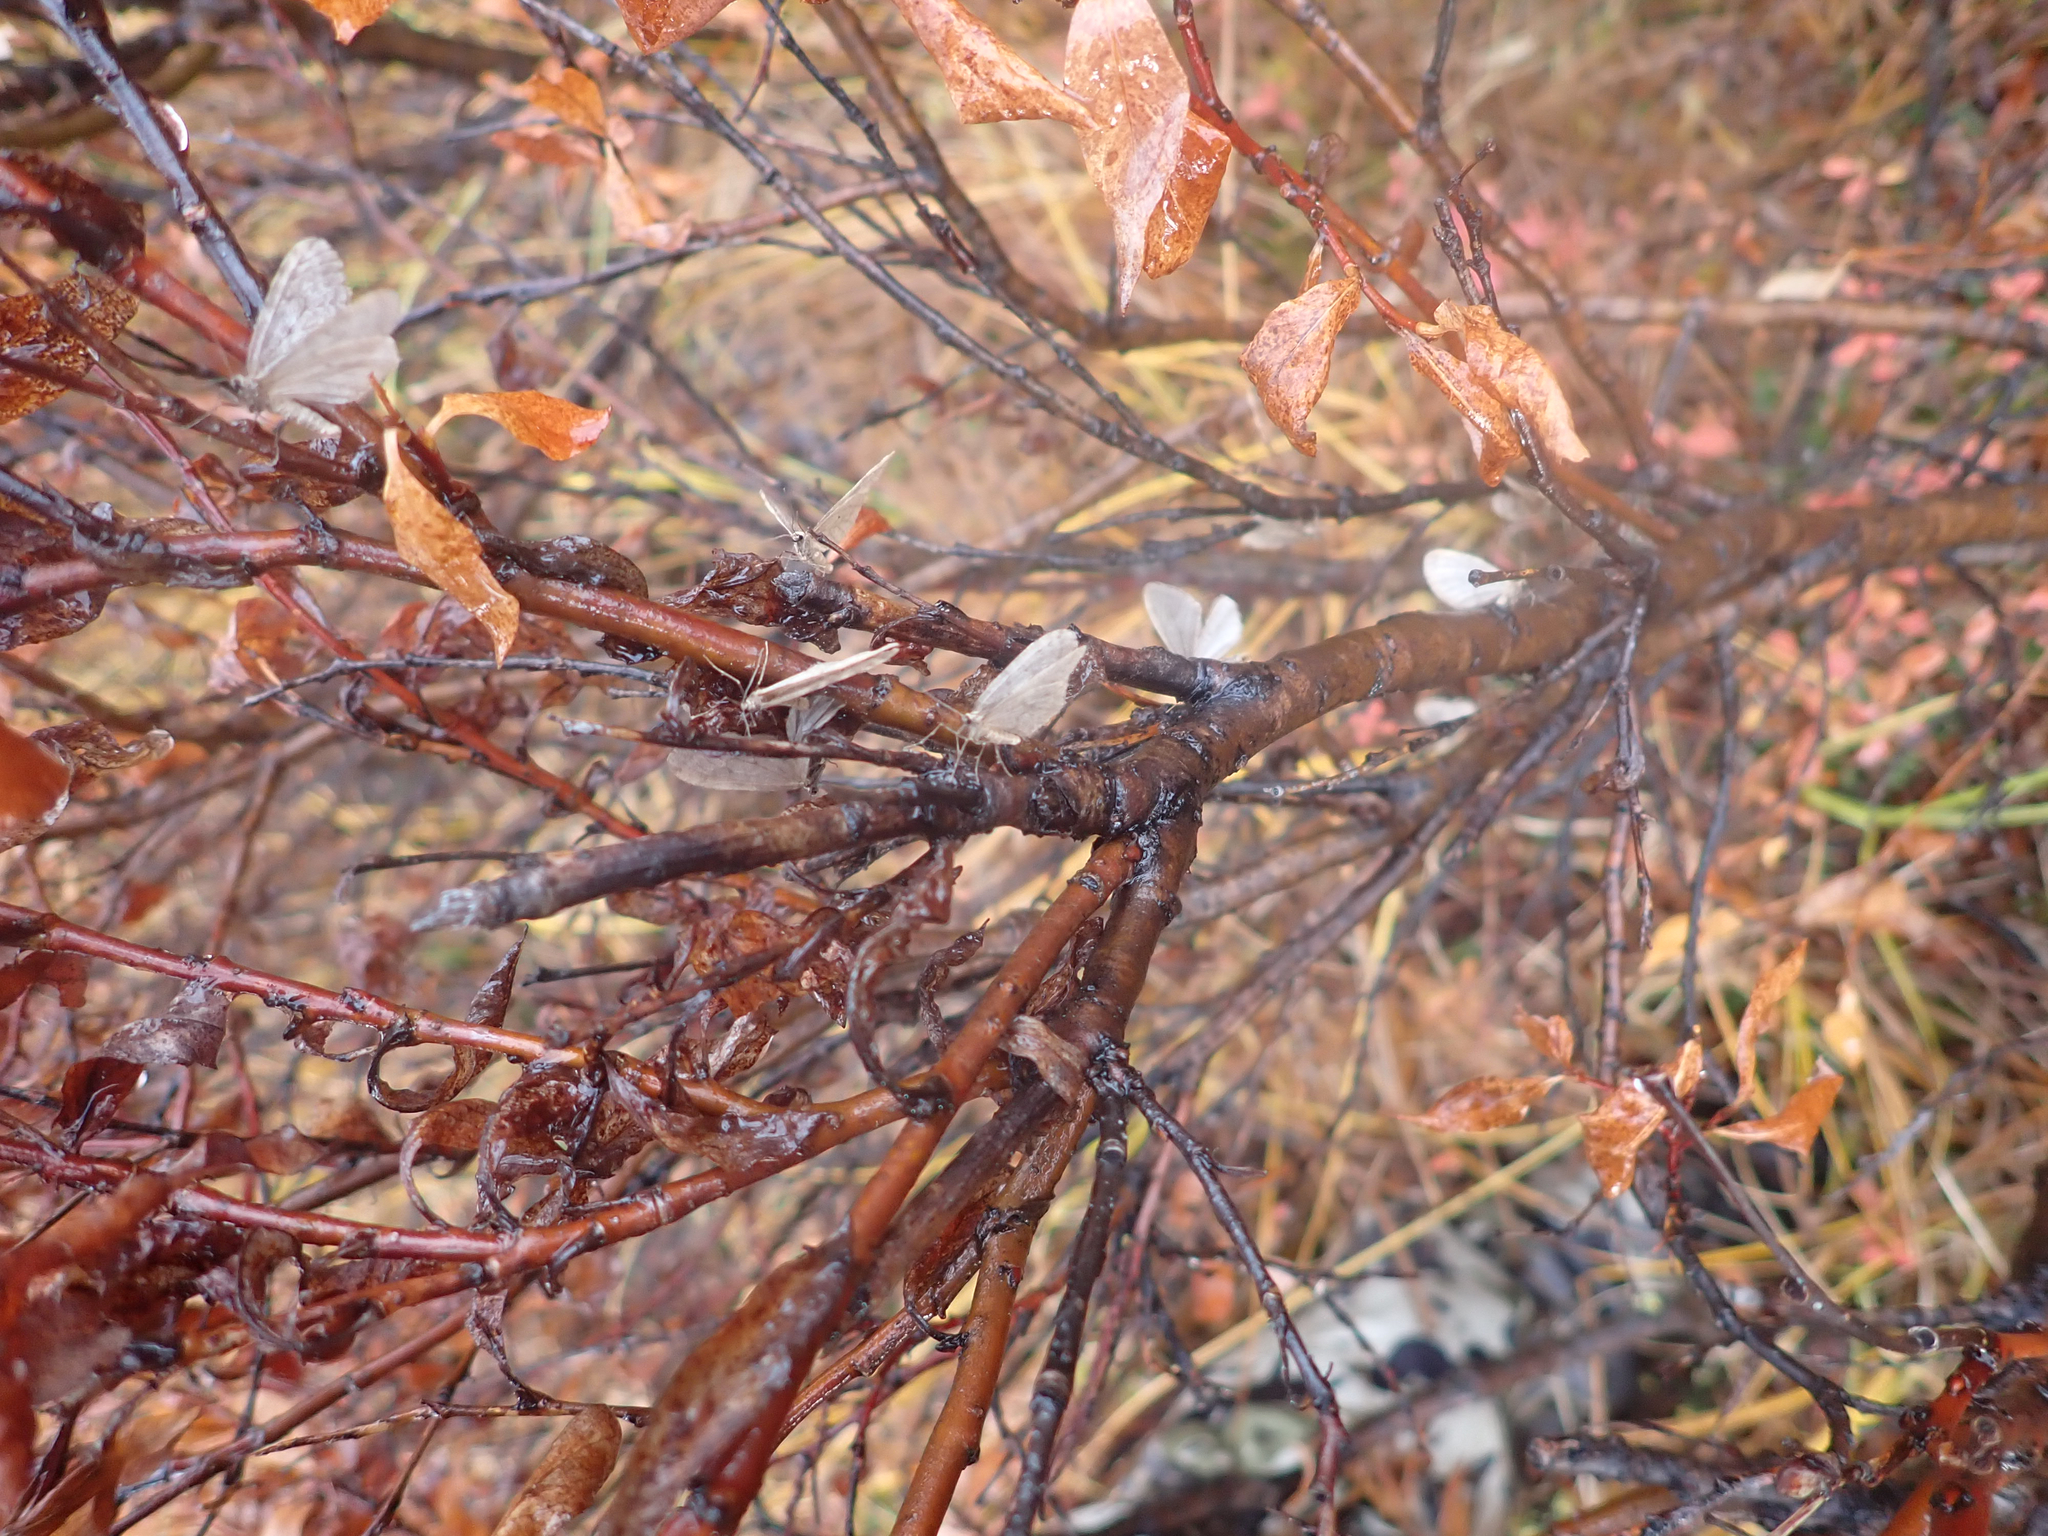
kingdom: Animalia
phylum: Arthropoda
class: Insecta
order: Lepidoptera
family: Geometridae
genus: Operophtera
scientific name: Operophtera bruceata
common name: Bruce spanworm
